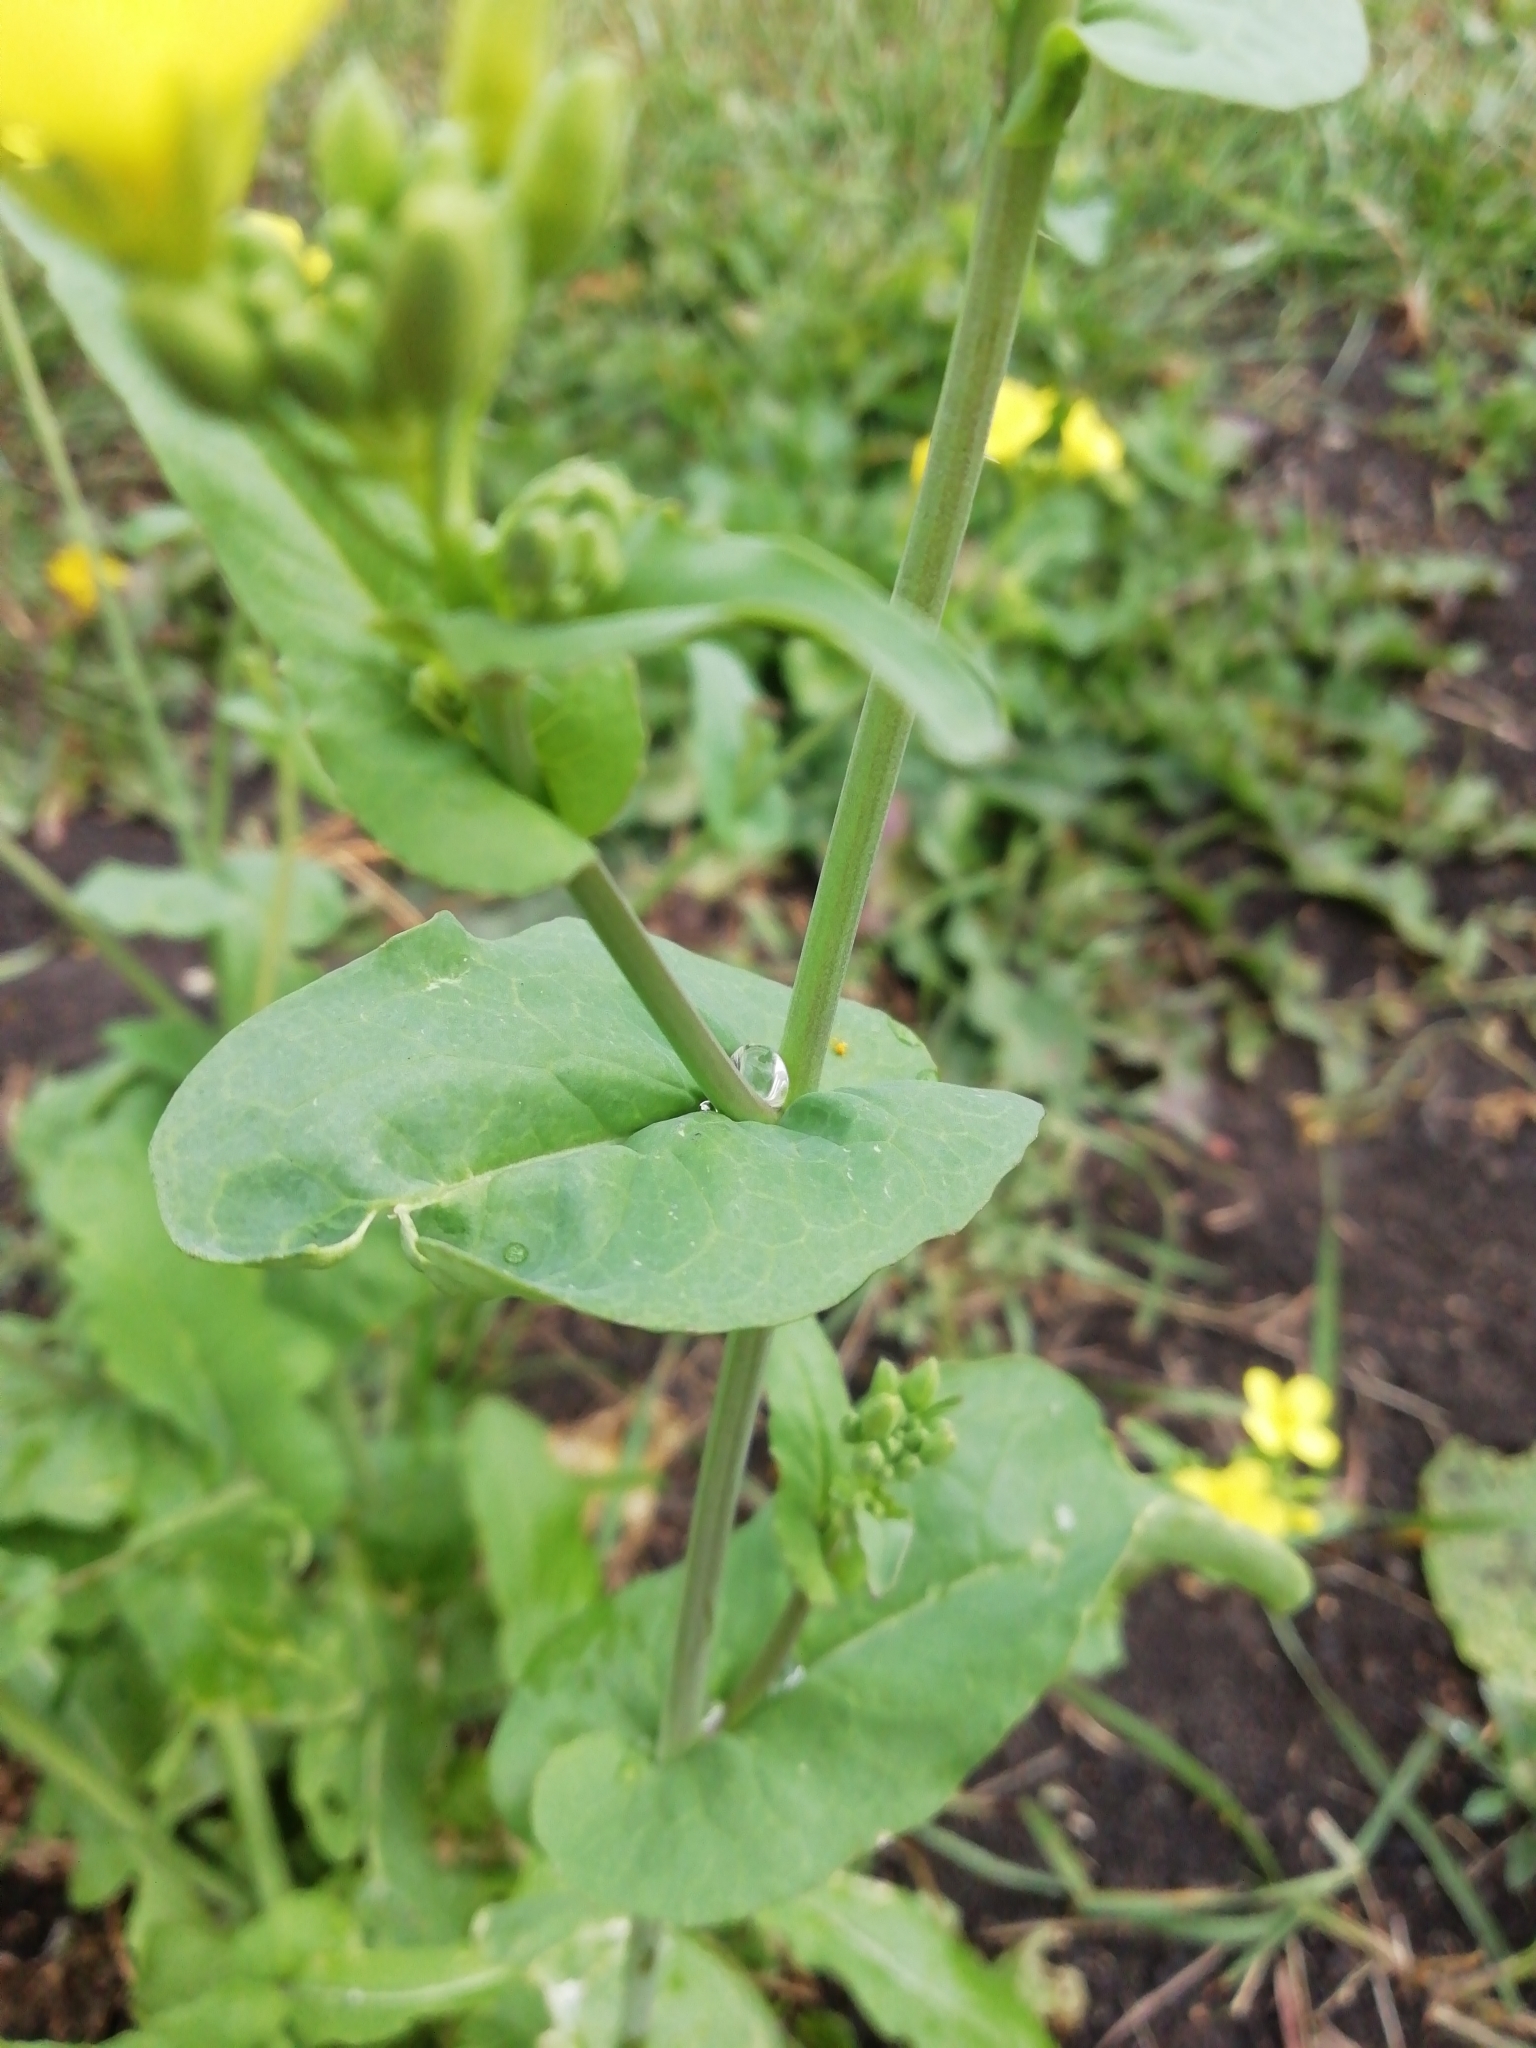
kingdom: Plantae
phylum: Tracheophyta
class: Magnoliopsida
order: Brassicales
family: Brassicaceae
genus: Brassica
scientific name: Brassica rapa
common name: Field mustard
